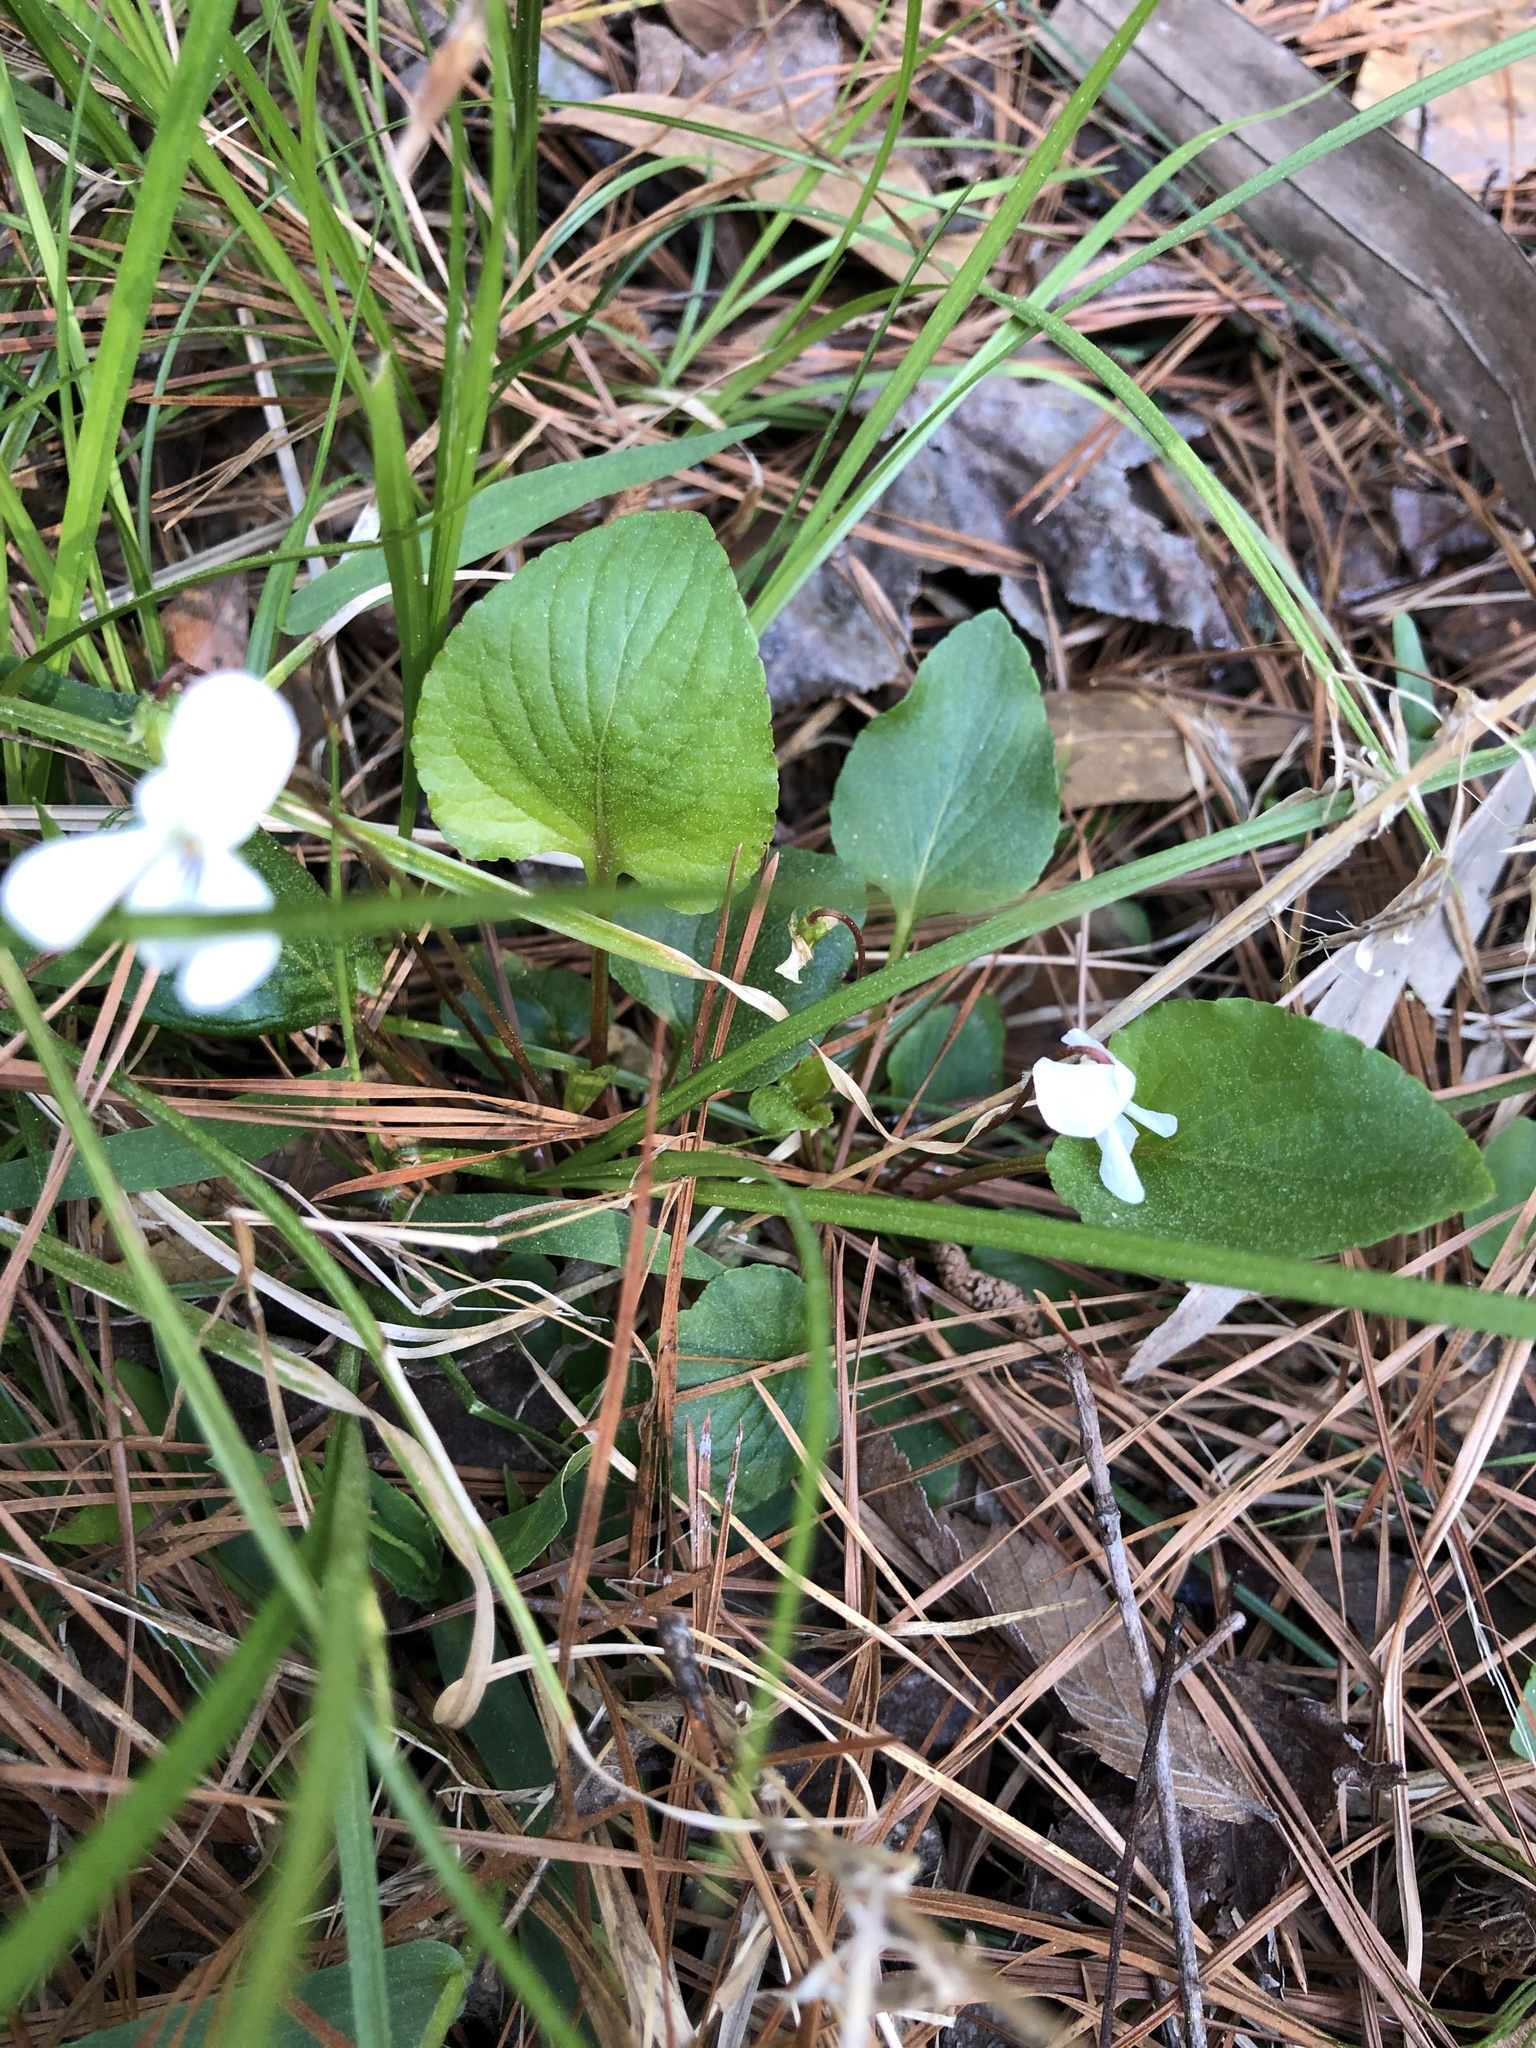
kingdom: Plantae
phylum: Tracheophyta
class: Magnoliopsida
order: Malpighiales
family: Violaceae
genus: Viola
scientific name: Viola primulifolia
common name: Primrose-leaf violet
